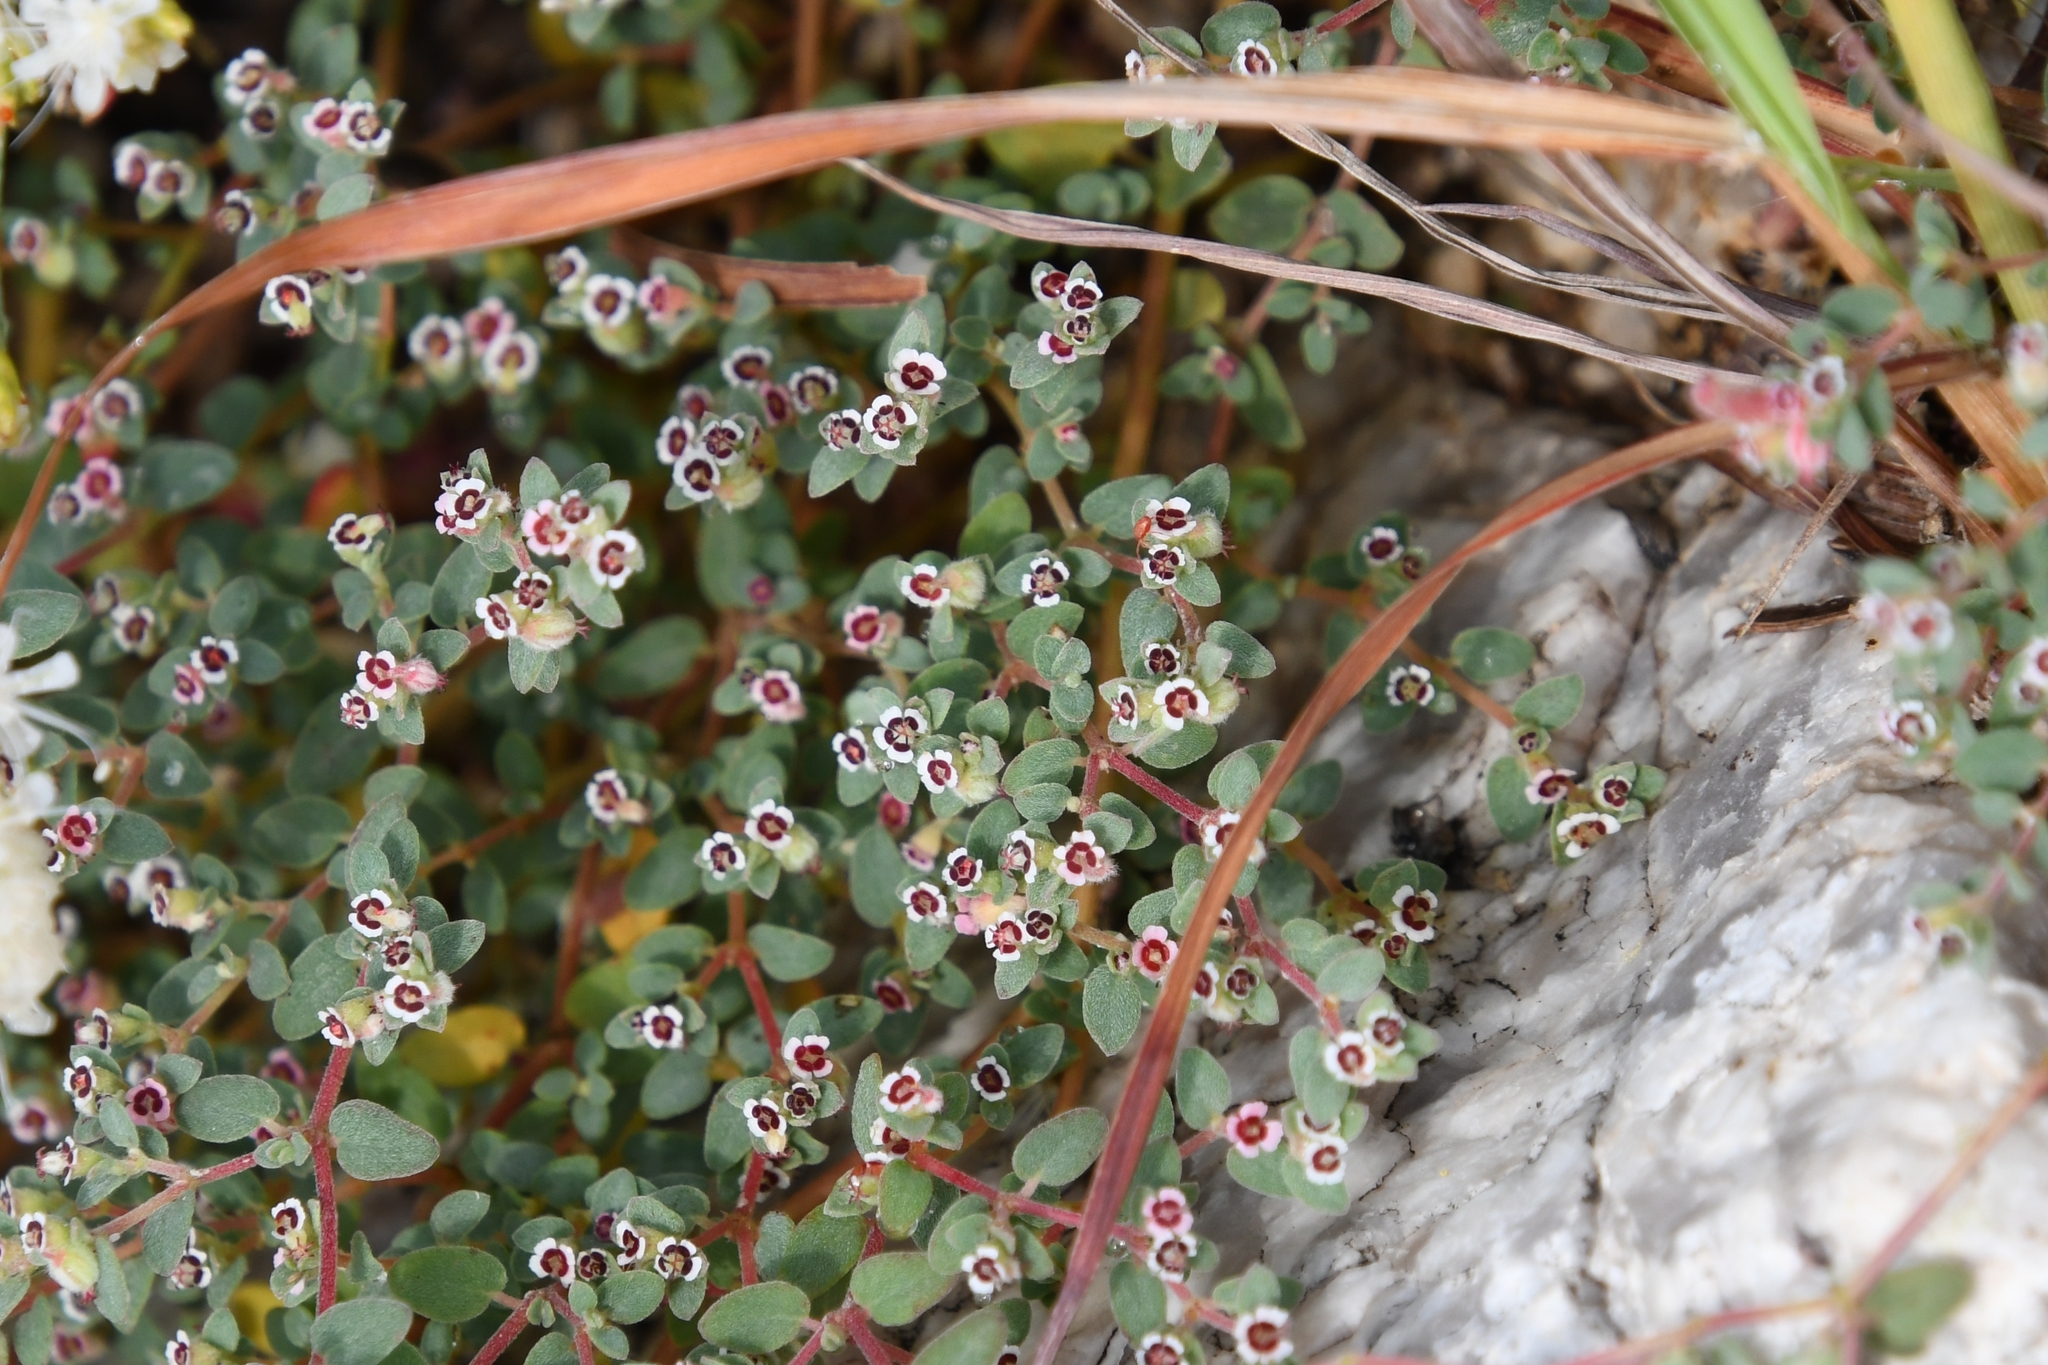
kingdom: Plantae
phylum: Tracheophyta
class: Magnoliopsida
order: Malpighiales
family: Euphorbiaceae
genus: Euphorbia
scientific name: Euphorbia melanadenia
